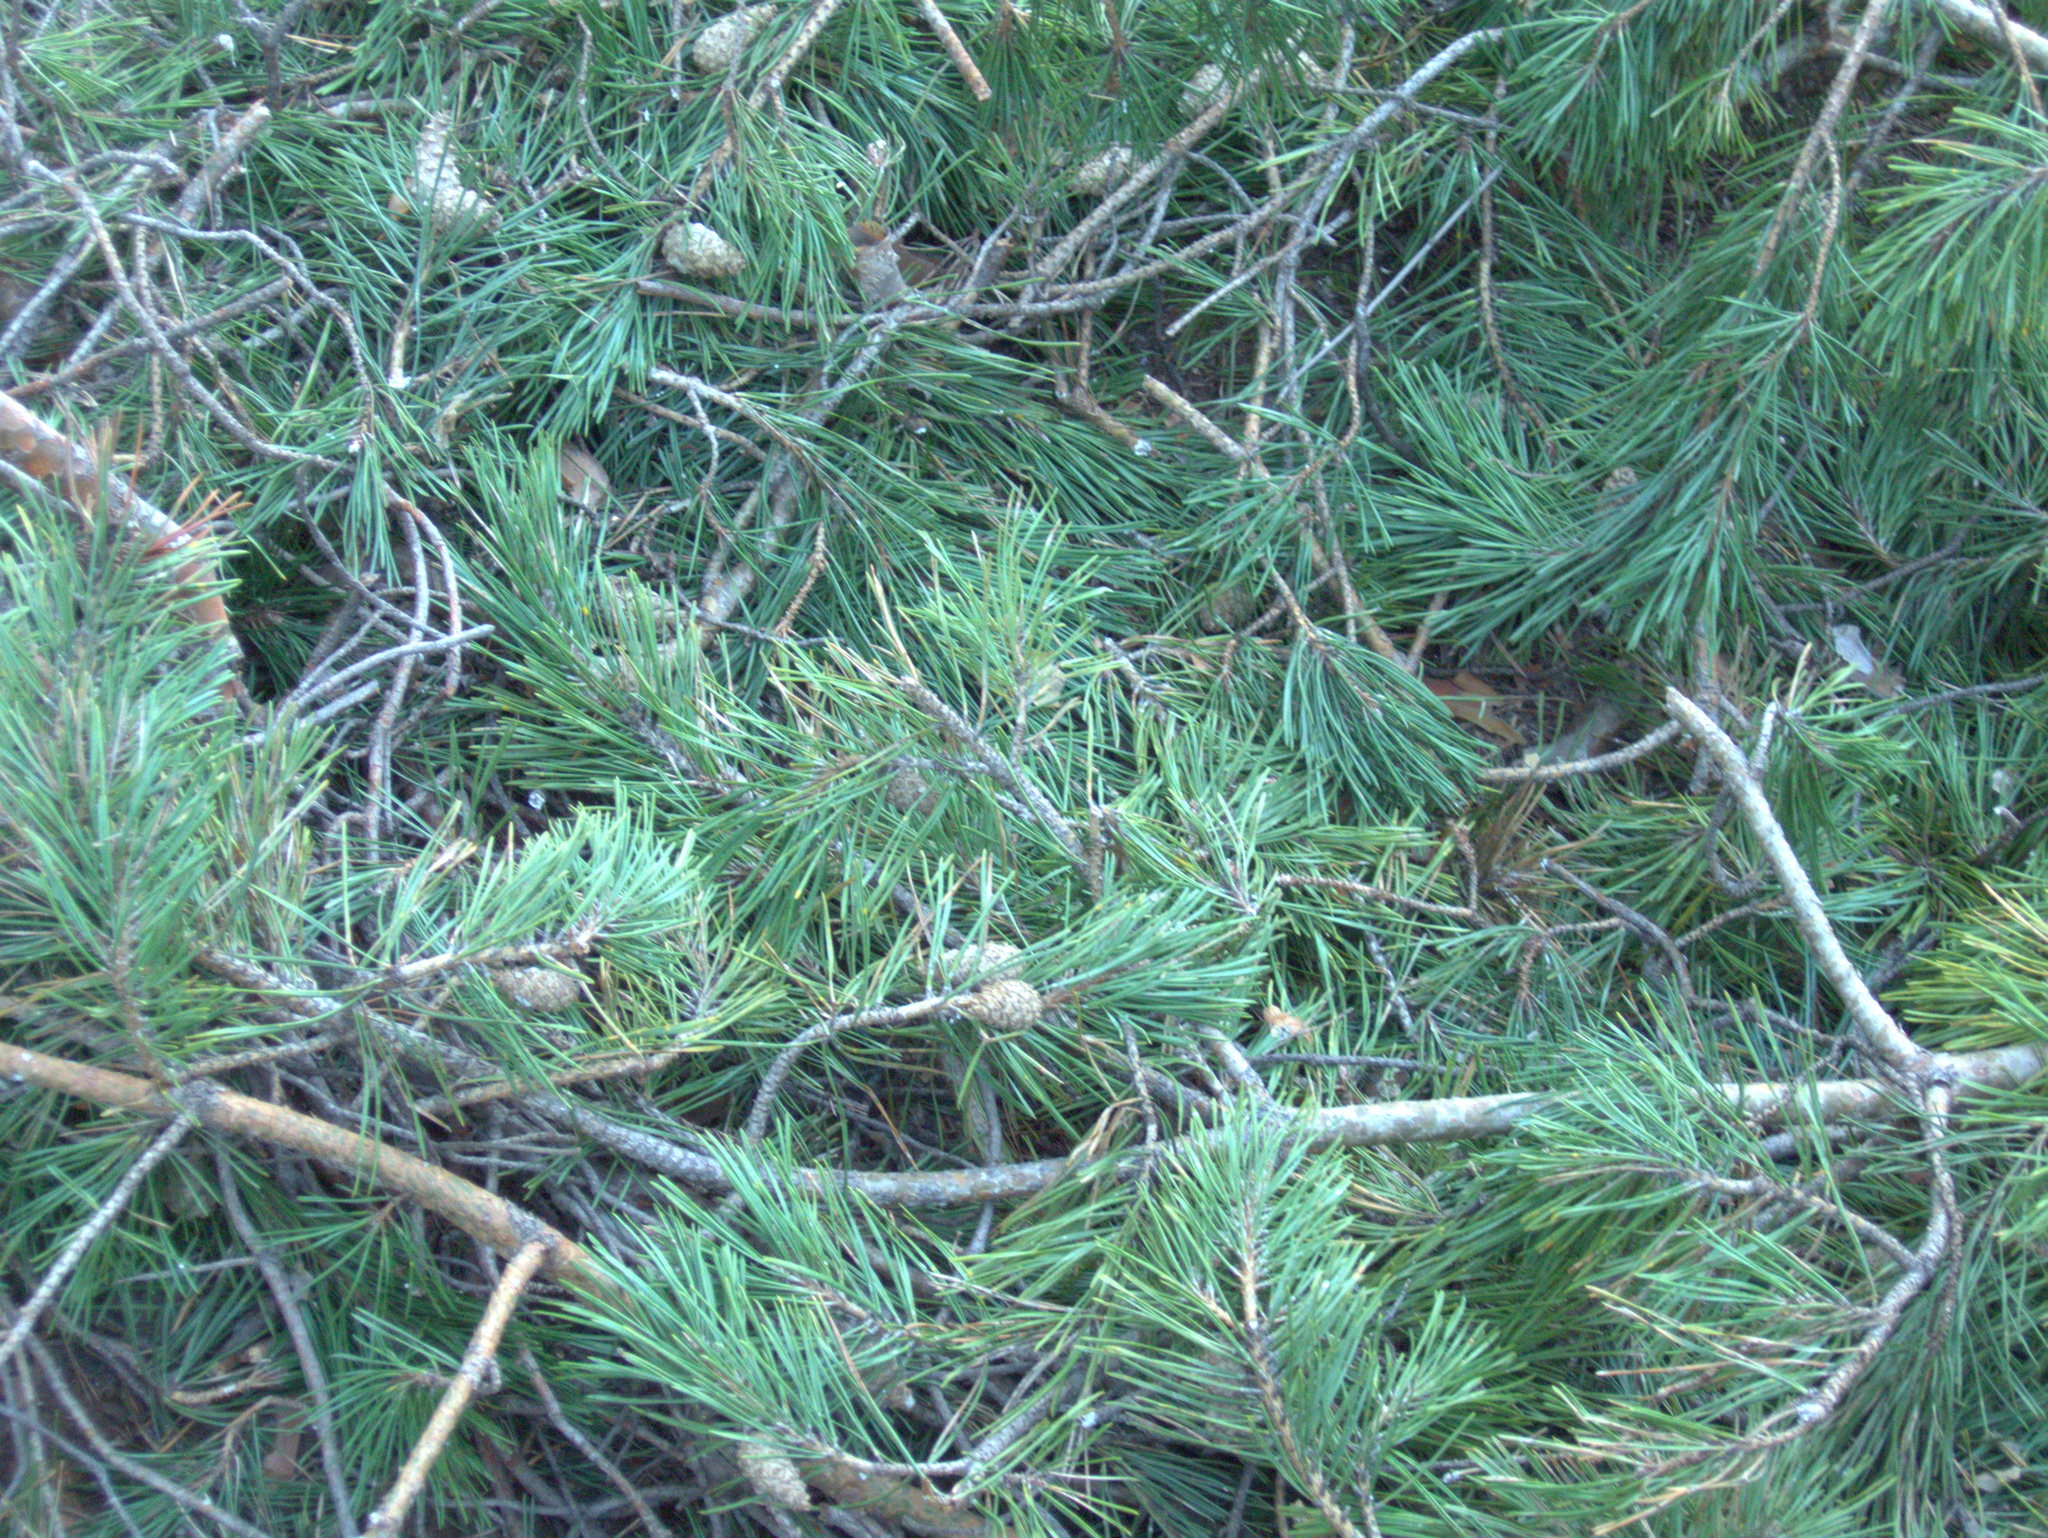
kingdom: Plantae
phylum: Tracheophyta
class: Pinopsida
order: Pinales
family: Pinaceae
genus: Pinus
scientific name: Pinus sylvestris
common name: Scots pine
